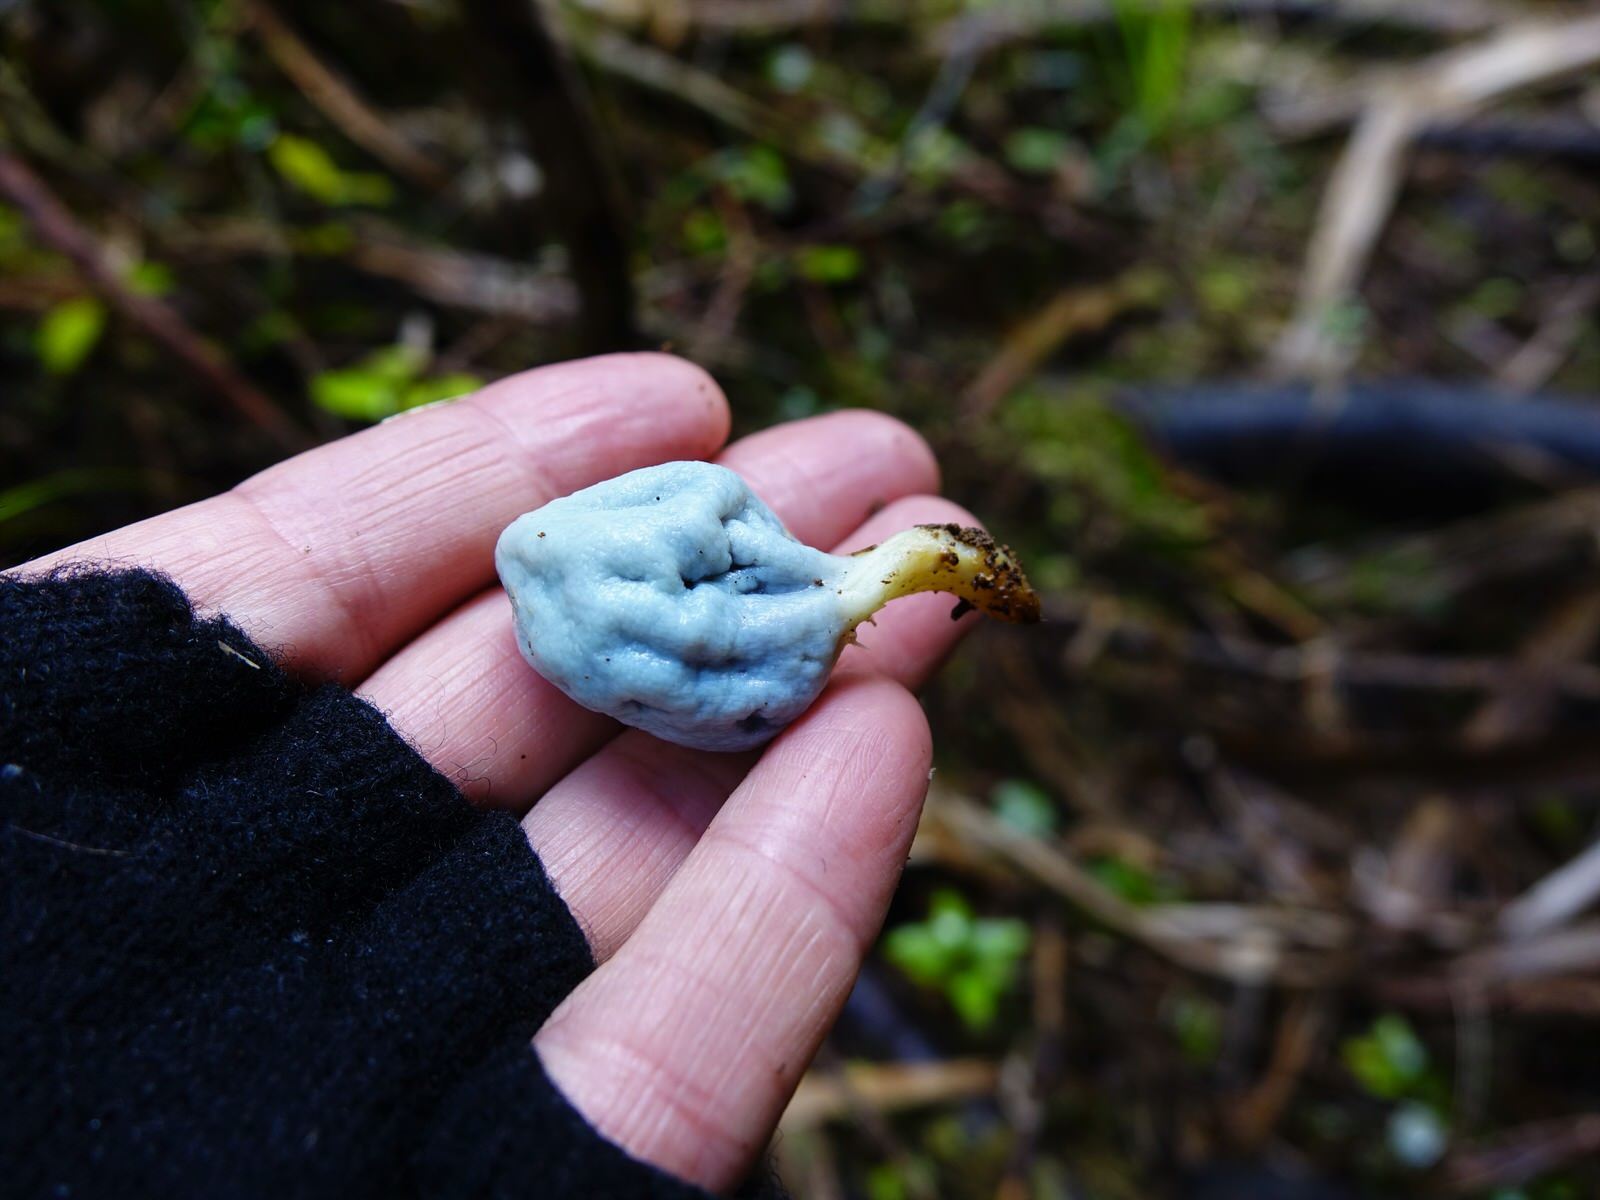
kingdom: Fungi
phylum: Basidiomycota
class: Agaricomycetes
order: Agaricales
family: Agaricaceae
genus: Clavogaster
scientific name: Clavogaster virescens
